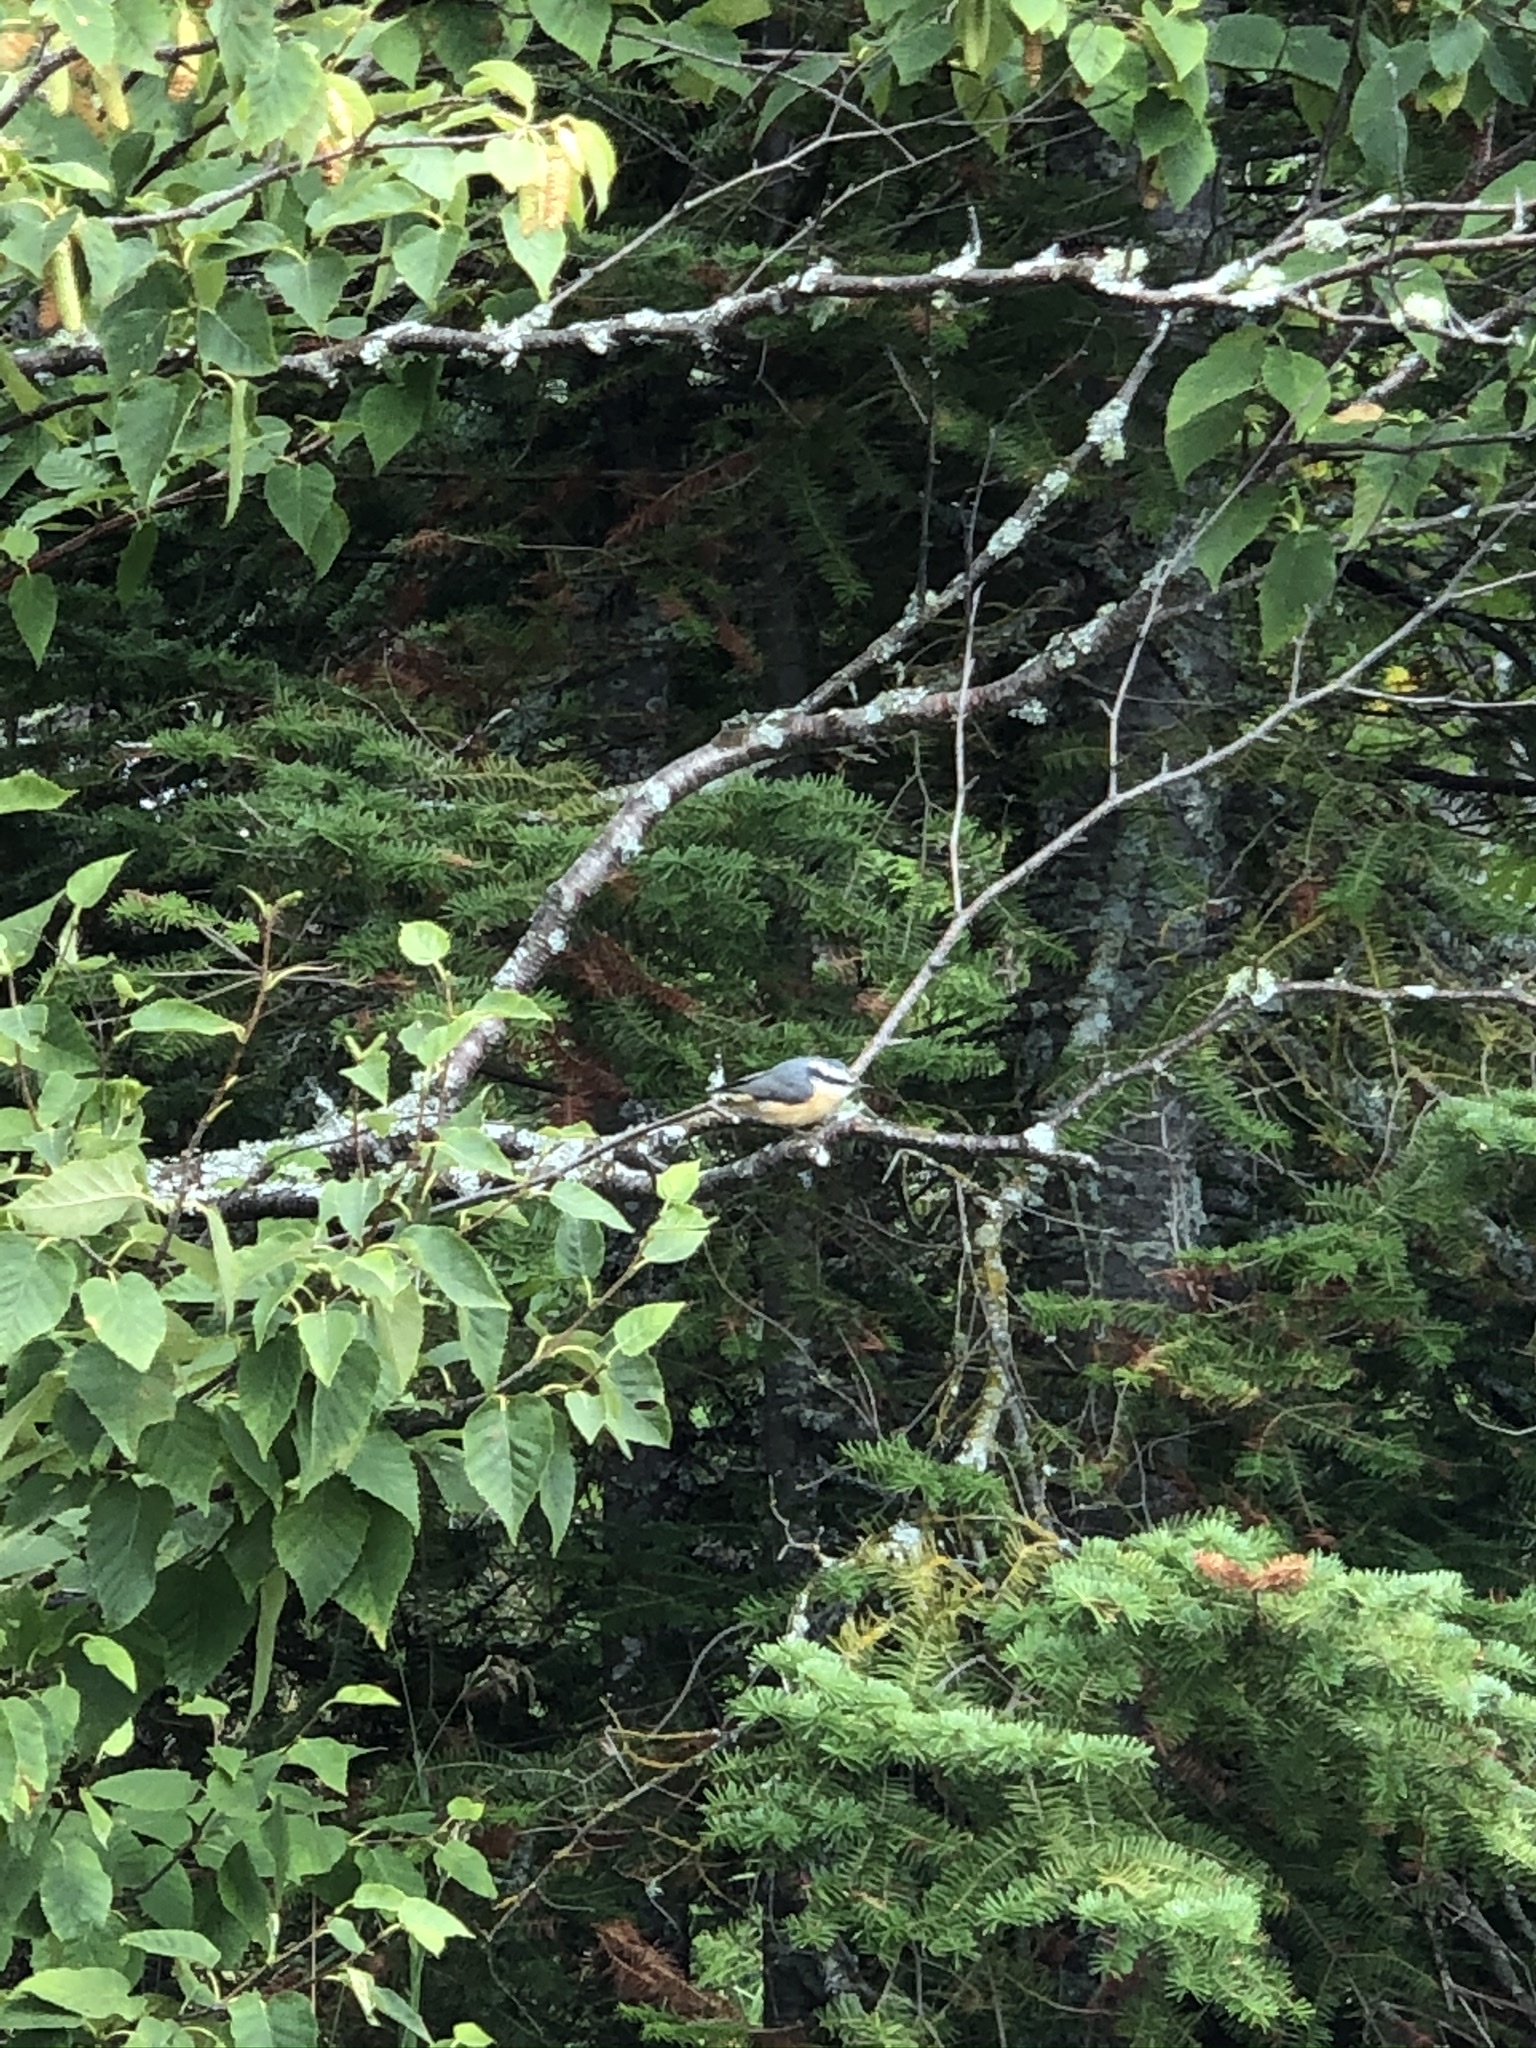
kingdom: Animalia
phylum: Chordata
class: Aves
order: Passeriformes
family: Sittidae
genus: Sitta
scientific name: Sitta canadensis
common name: Red-breasted nuthatch
